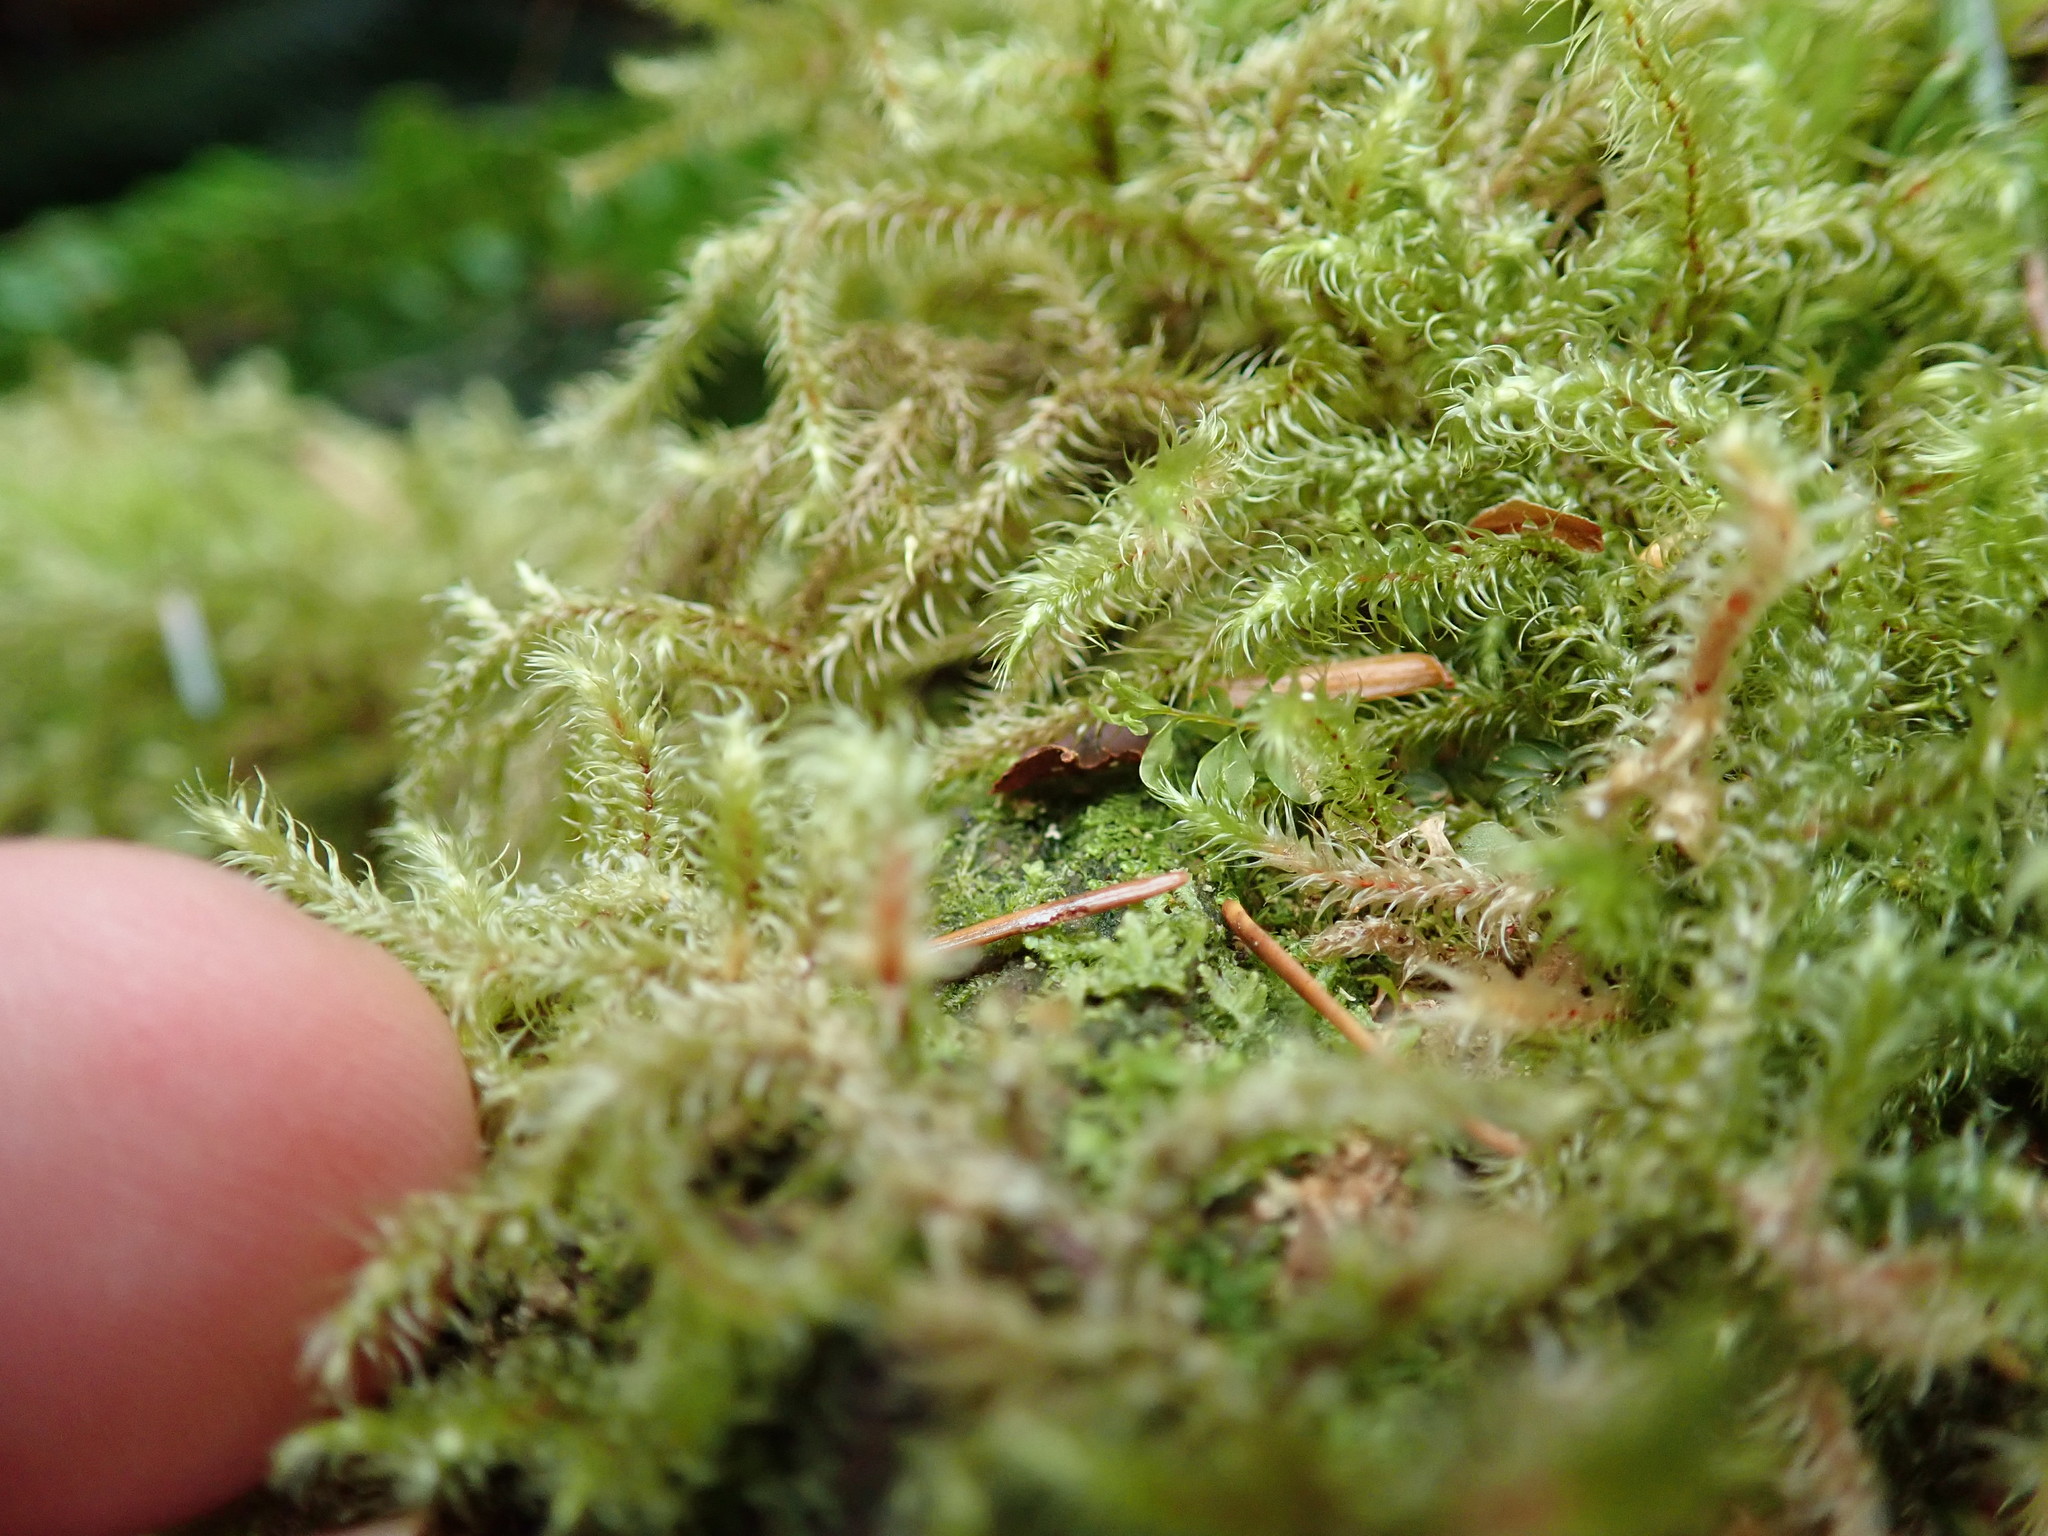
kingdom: Plantae
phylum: Bryophyta
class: Bryopsida
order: Hypnales
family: Hylocomiaceae
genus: Rhytidiadelphus
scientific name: Rhytidiadelphus loreus
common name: Lanky moss
